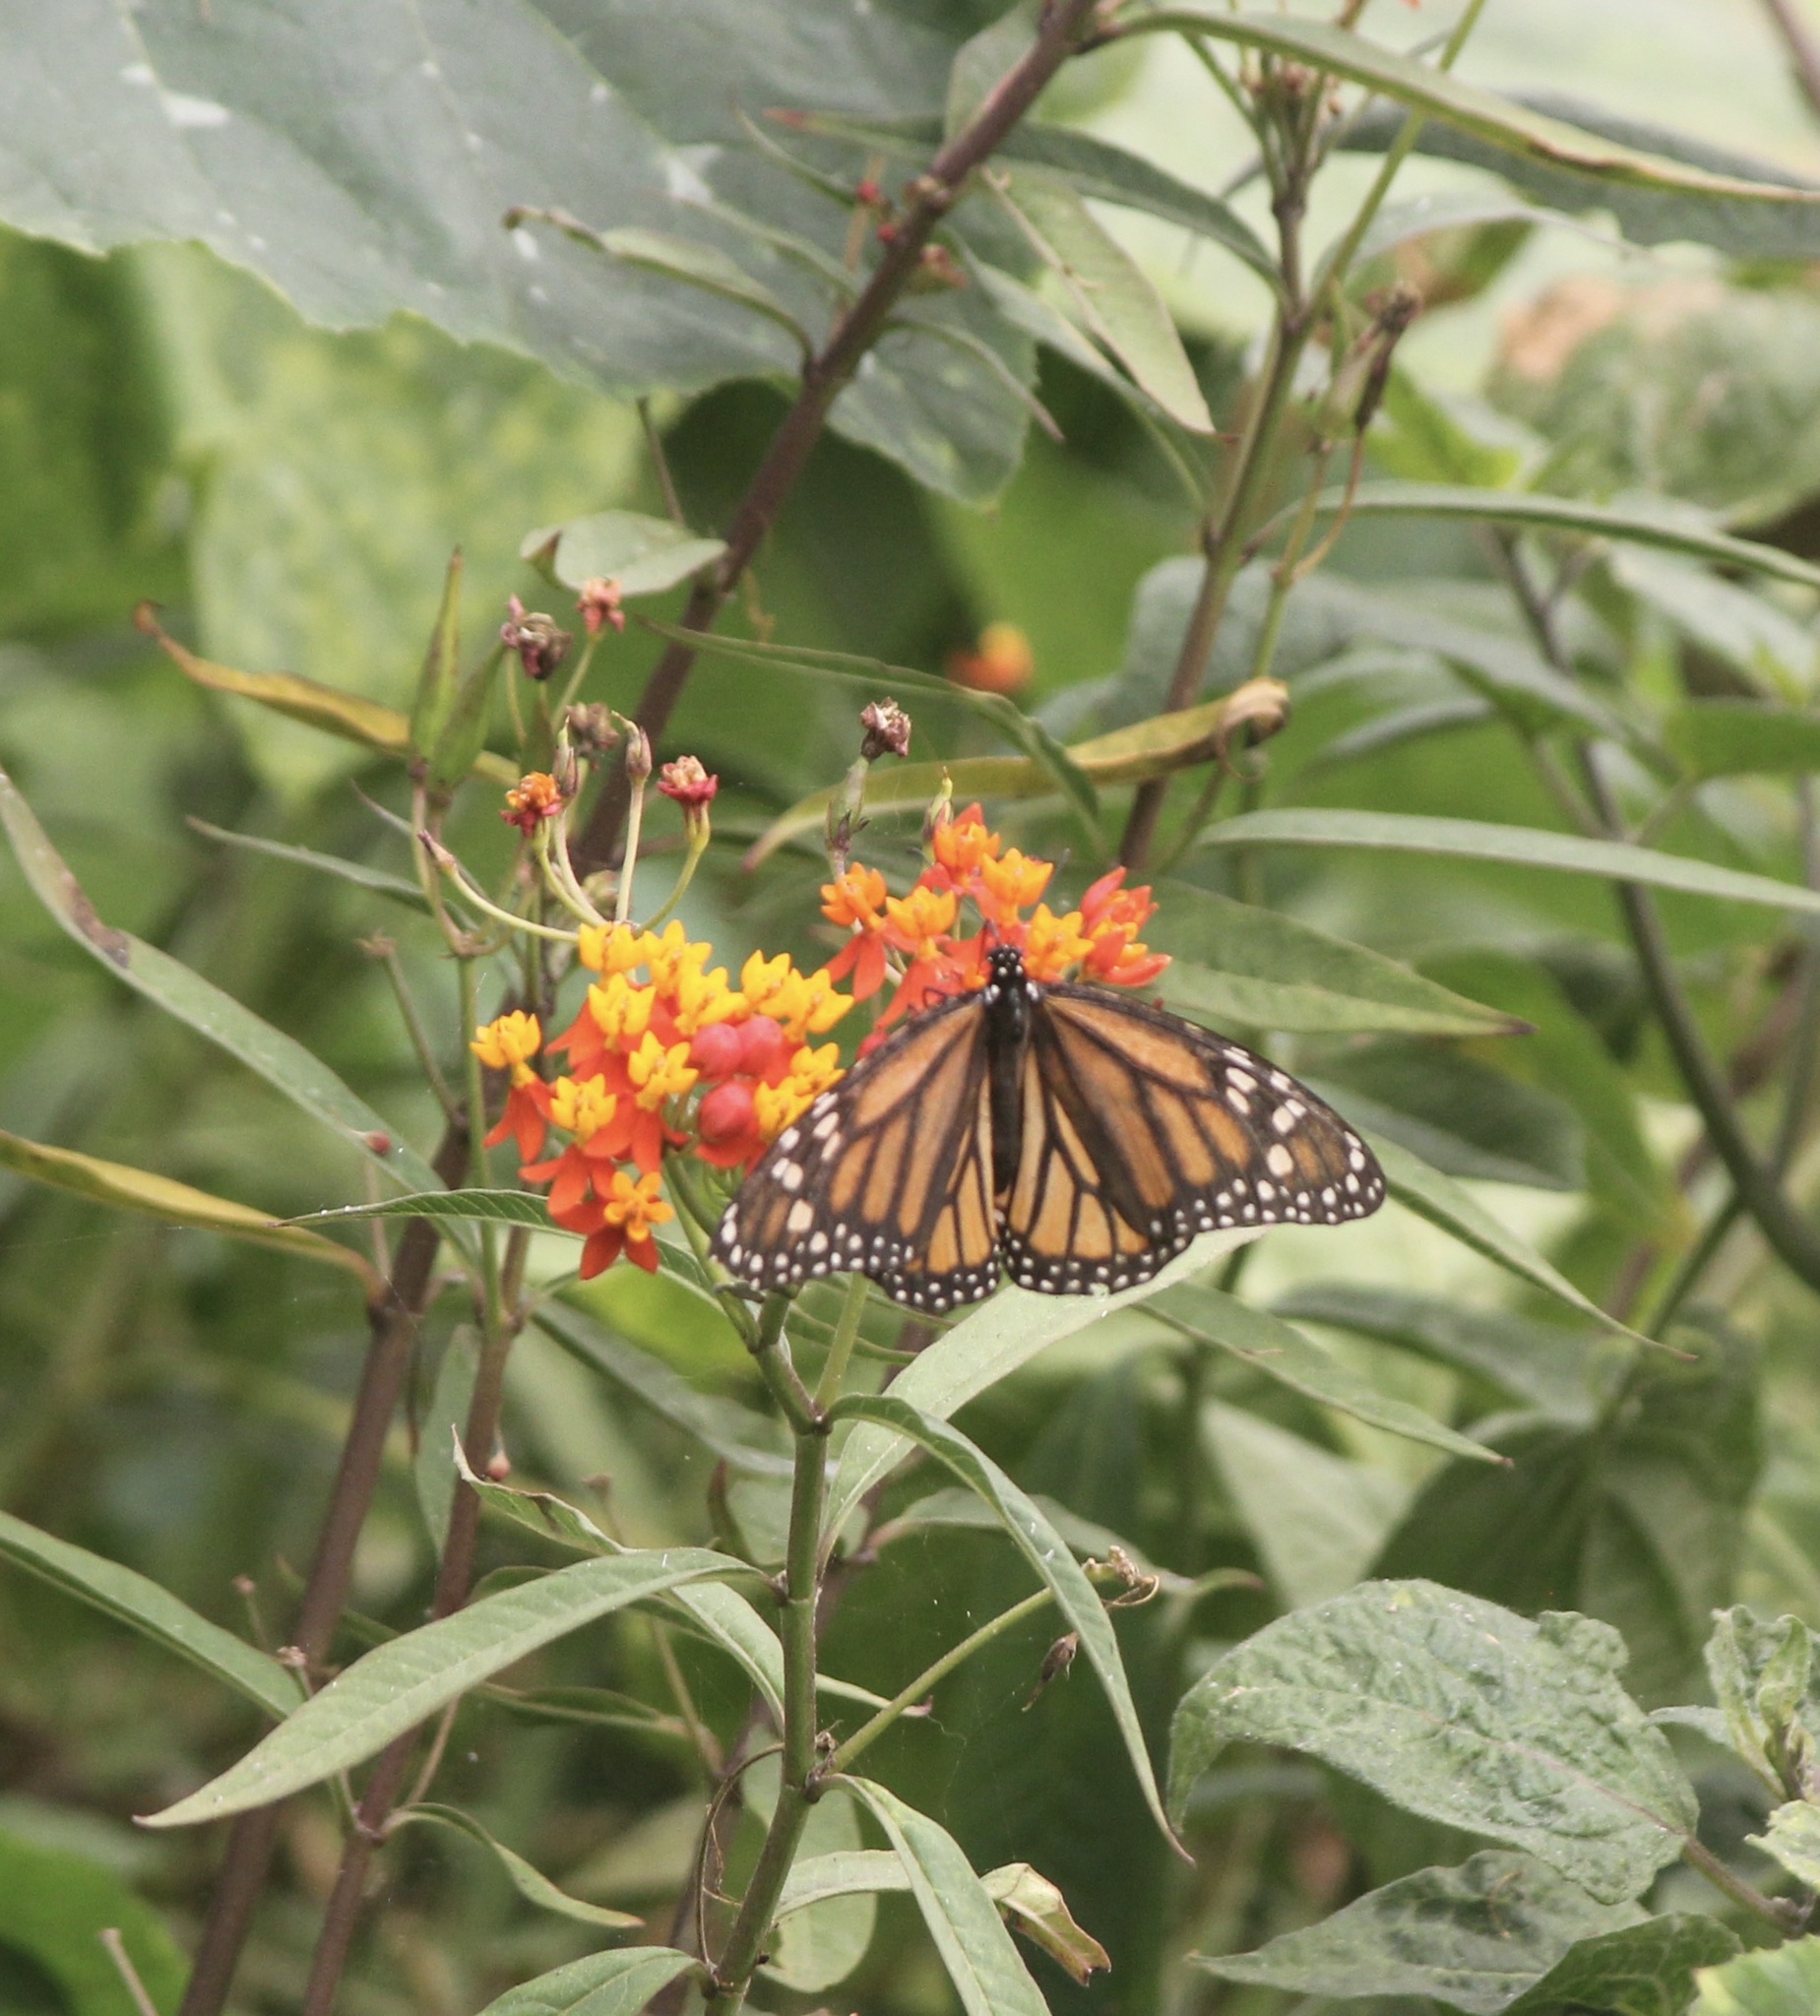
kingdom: Animalia
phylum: Arthropoda
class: Insecta
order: Lepidoptera
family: Nymphalidae
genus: Danaus
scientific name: Danaus plexippus
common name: Monarch
